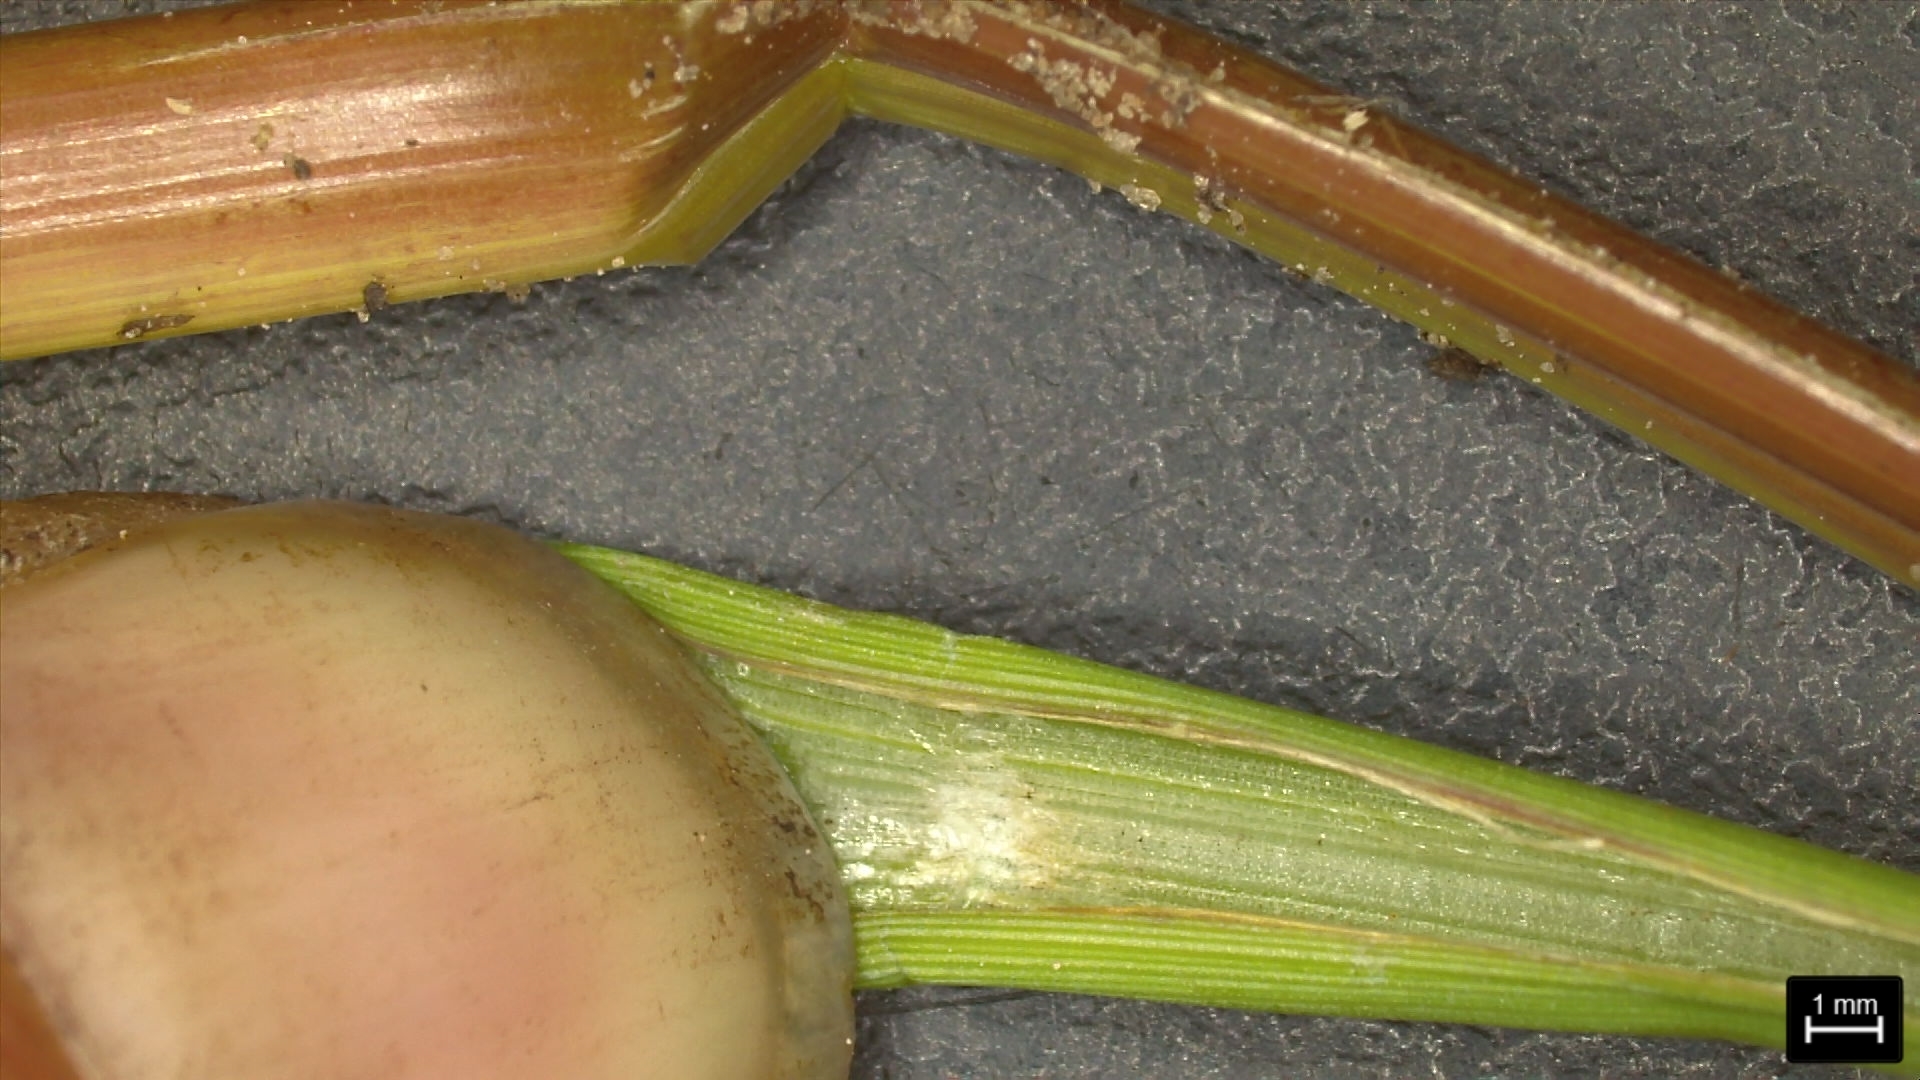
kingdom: Plantae
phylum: Tracheophyta
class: Liliopsida
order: Poales
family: Poaceae
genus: Echinochloa
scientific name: Echinochloa crus-pavonis
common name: Gulf cockspur grass
